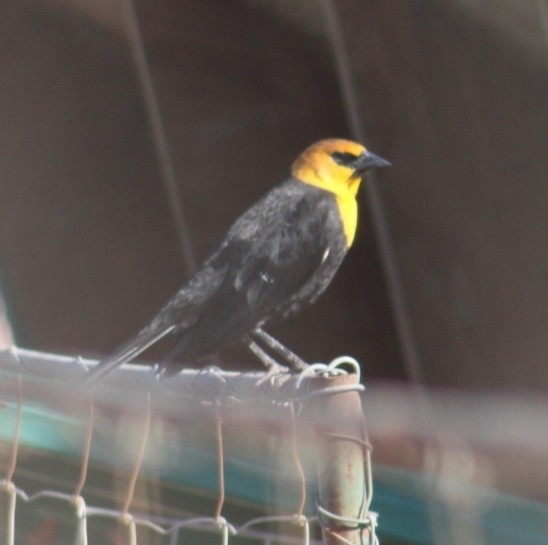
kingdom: Animalia
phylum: Chordata
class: Aves
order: Passeriformes
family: Icteridae
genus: Xanthocephalus
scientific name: Xanthocephalus xanthocephalus
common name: Yellow-headed blackbird
